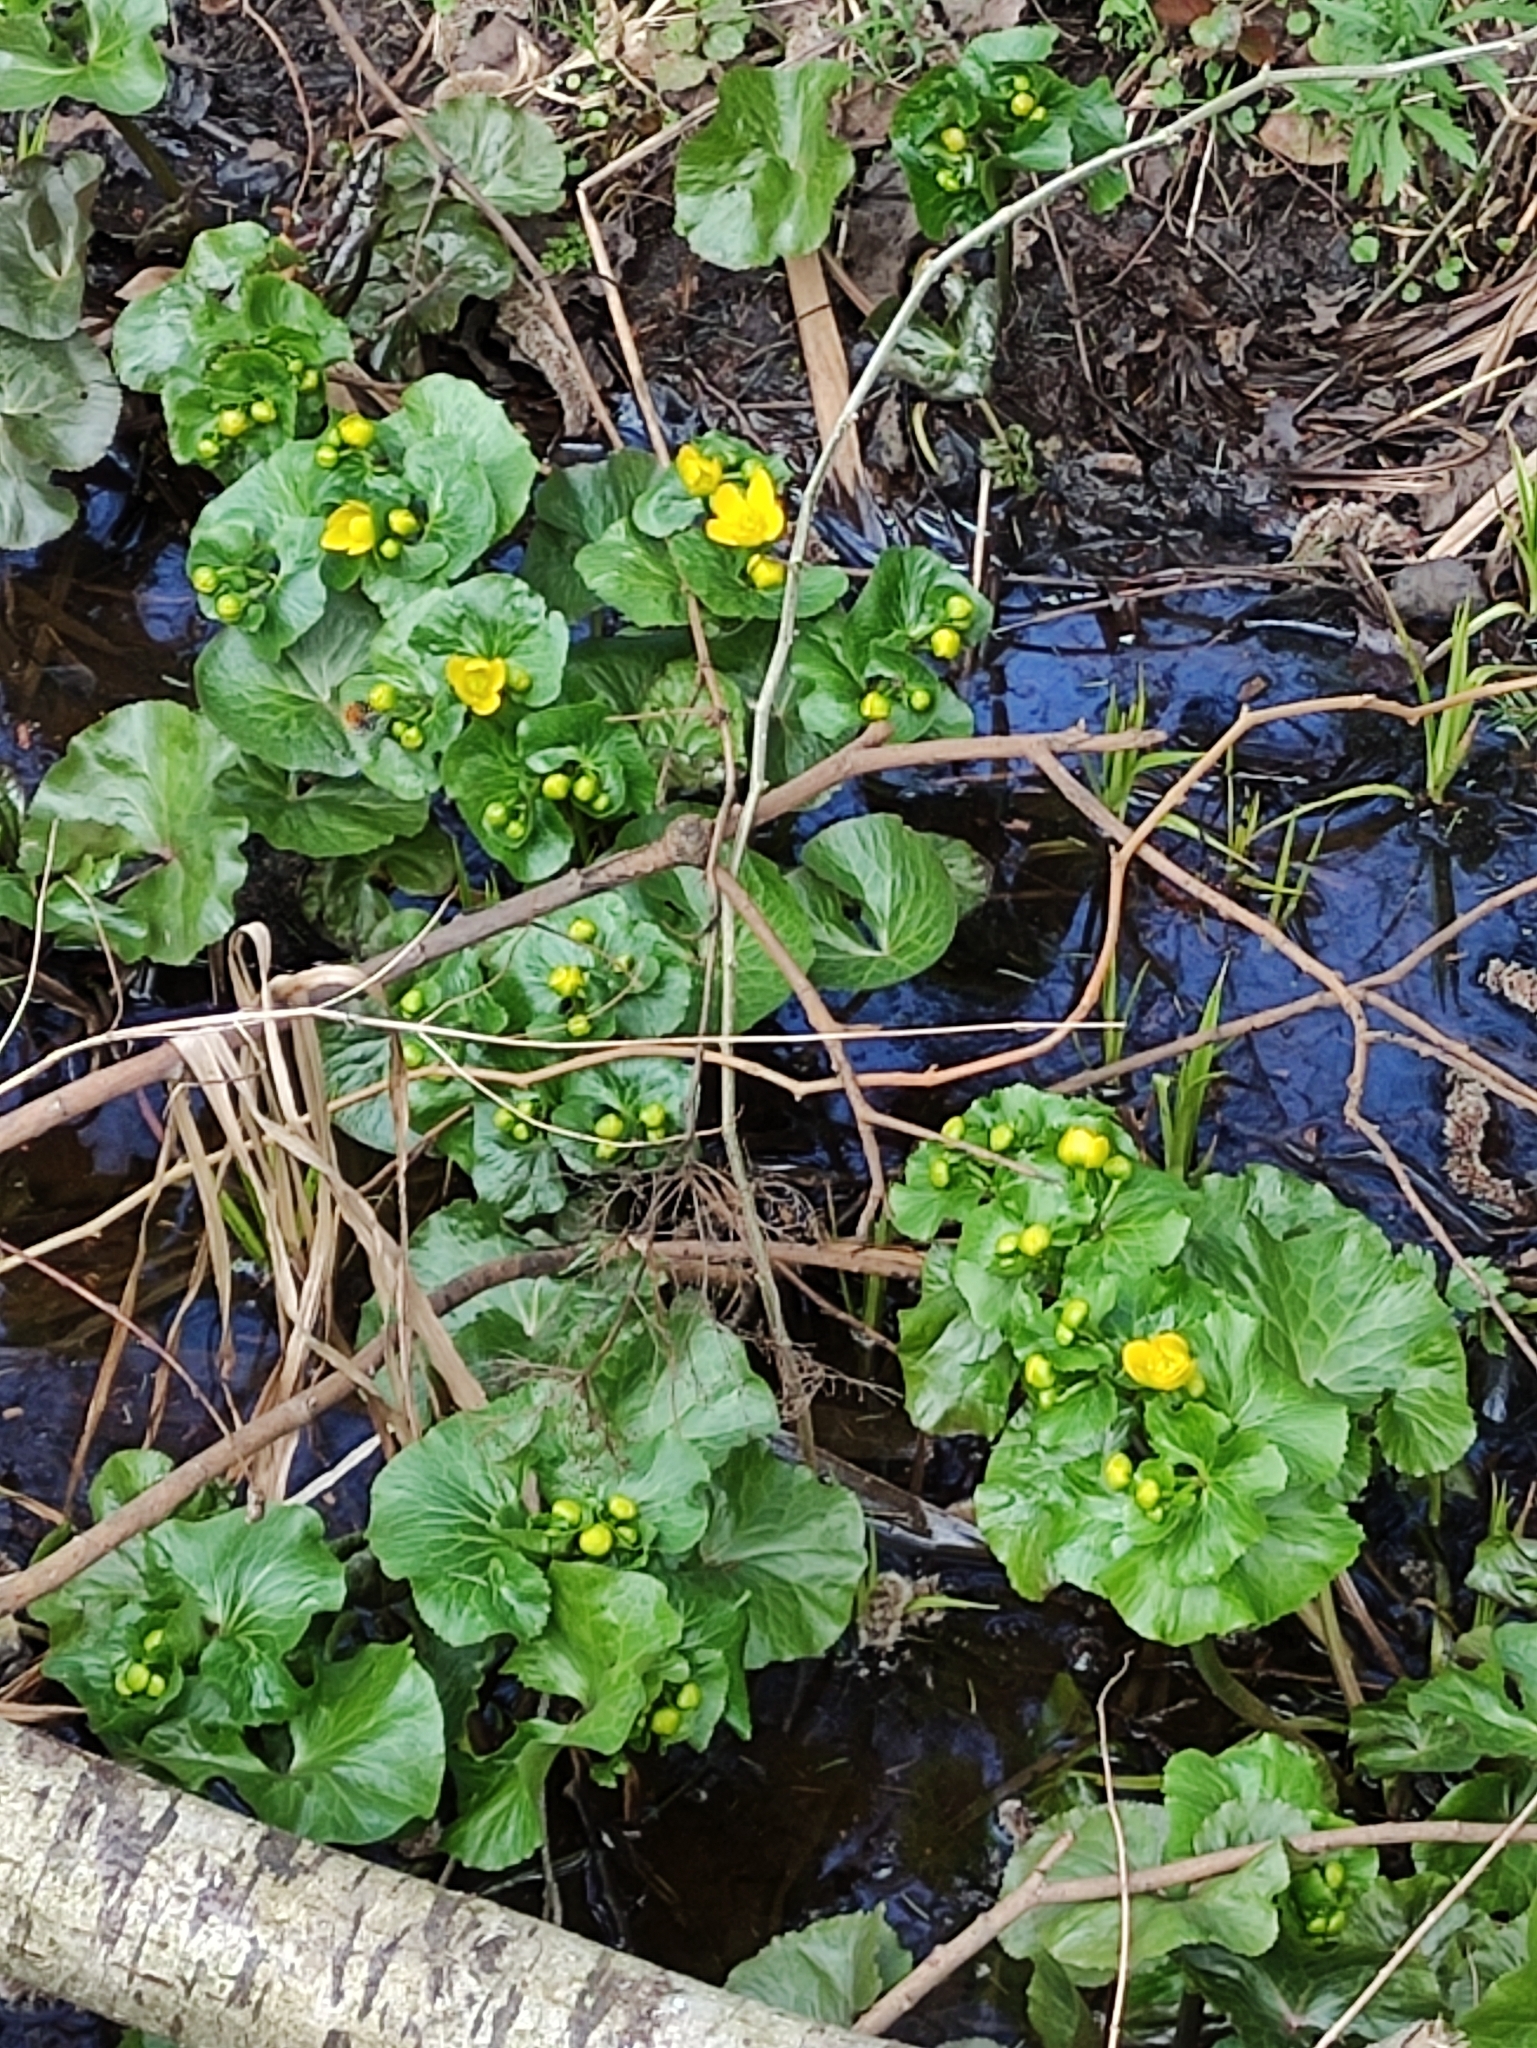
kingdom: Plantae
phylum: Tracheophyta
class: Magnoliopsida
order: Ranunculales
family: Ranunculaceae
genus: Caltha
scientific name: Caltha palustris
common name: Marsh marigold
